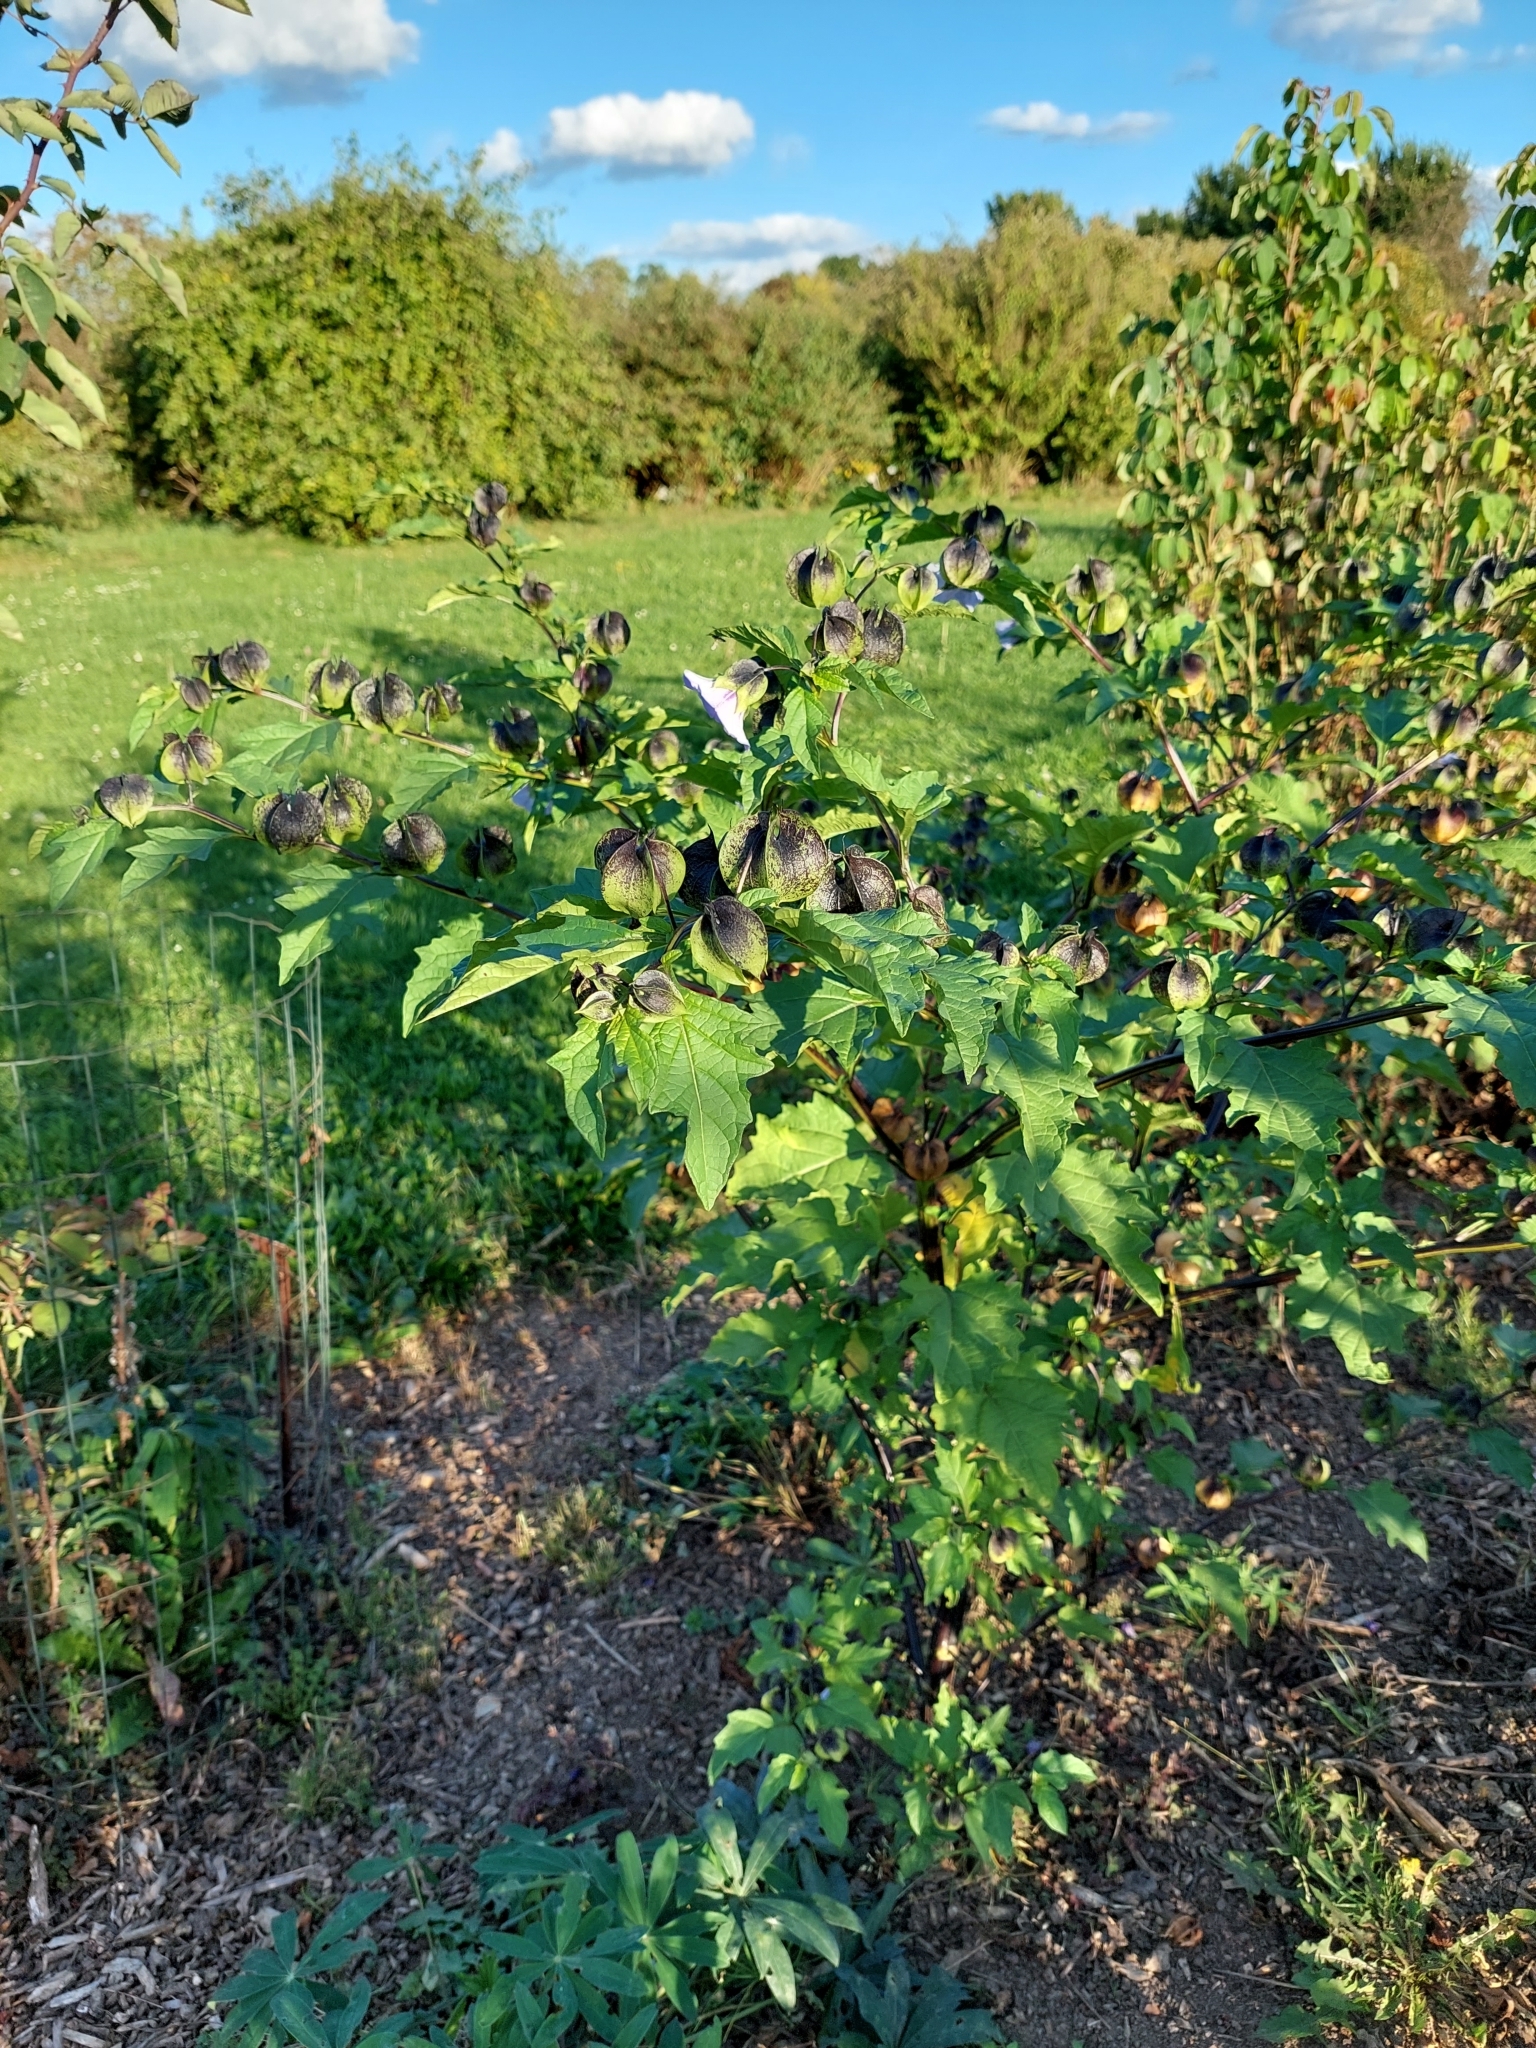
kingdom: Plantae
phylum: Tracheophyta
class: Magnoliopsida
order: Solanales
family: Solanaceae
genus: Nicandra
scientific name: Nicandra physalodes
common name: Apple-of-peru
